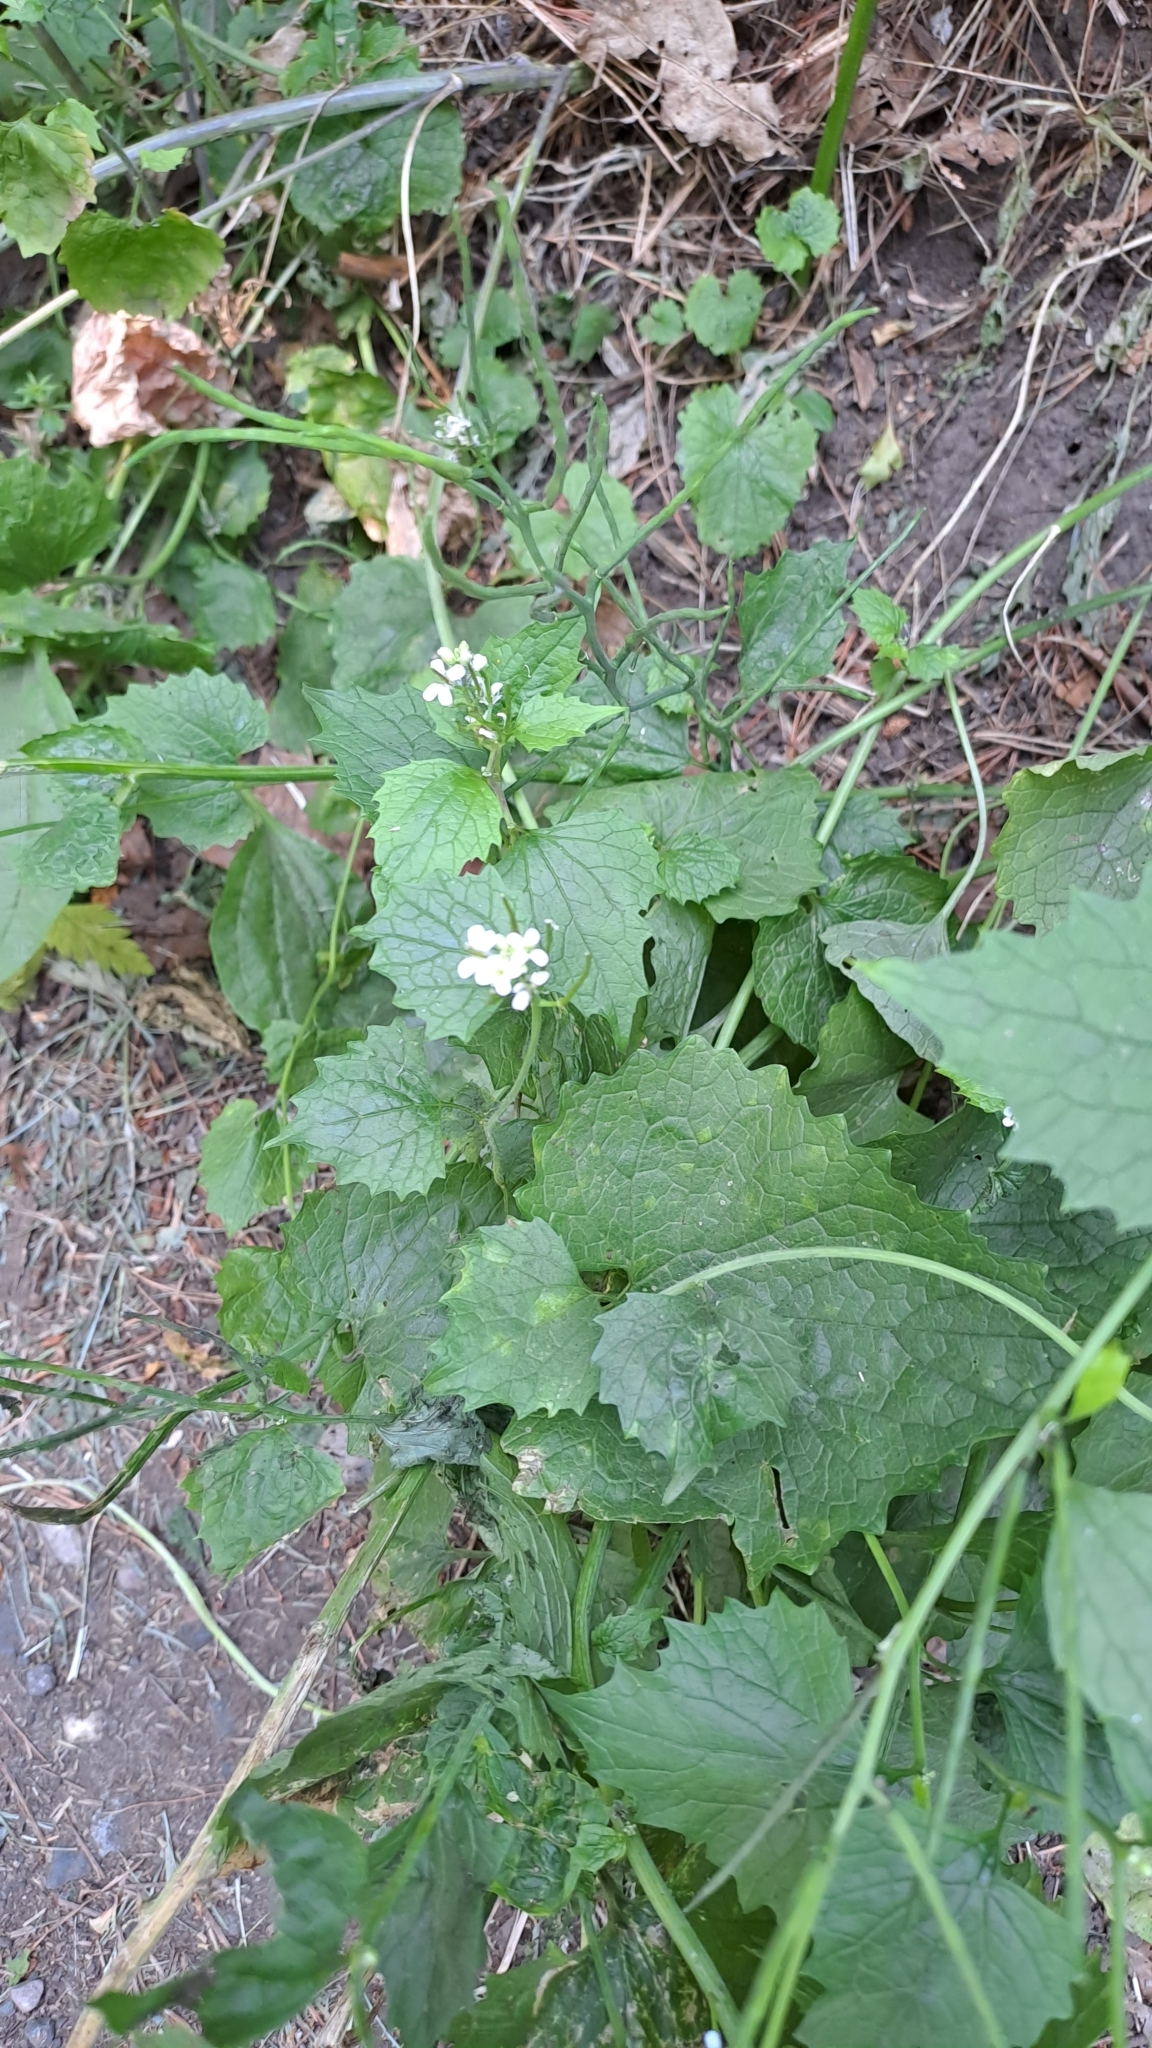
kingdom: Plantae
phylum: Tracheophyta
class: Magnoliopsida
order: Brassicales
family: Brassicaceae
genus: Alliaria
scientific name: Alliaria petiolata
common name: Garlic mustard
